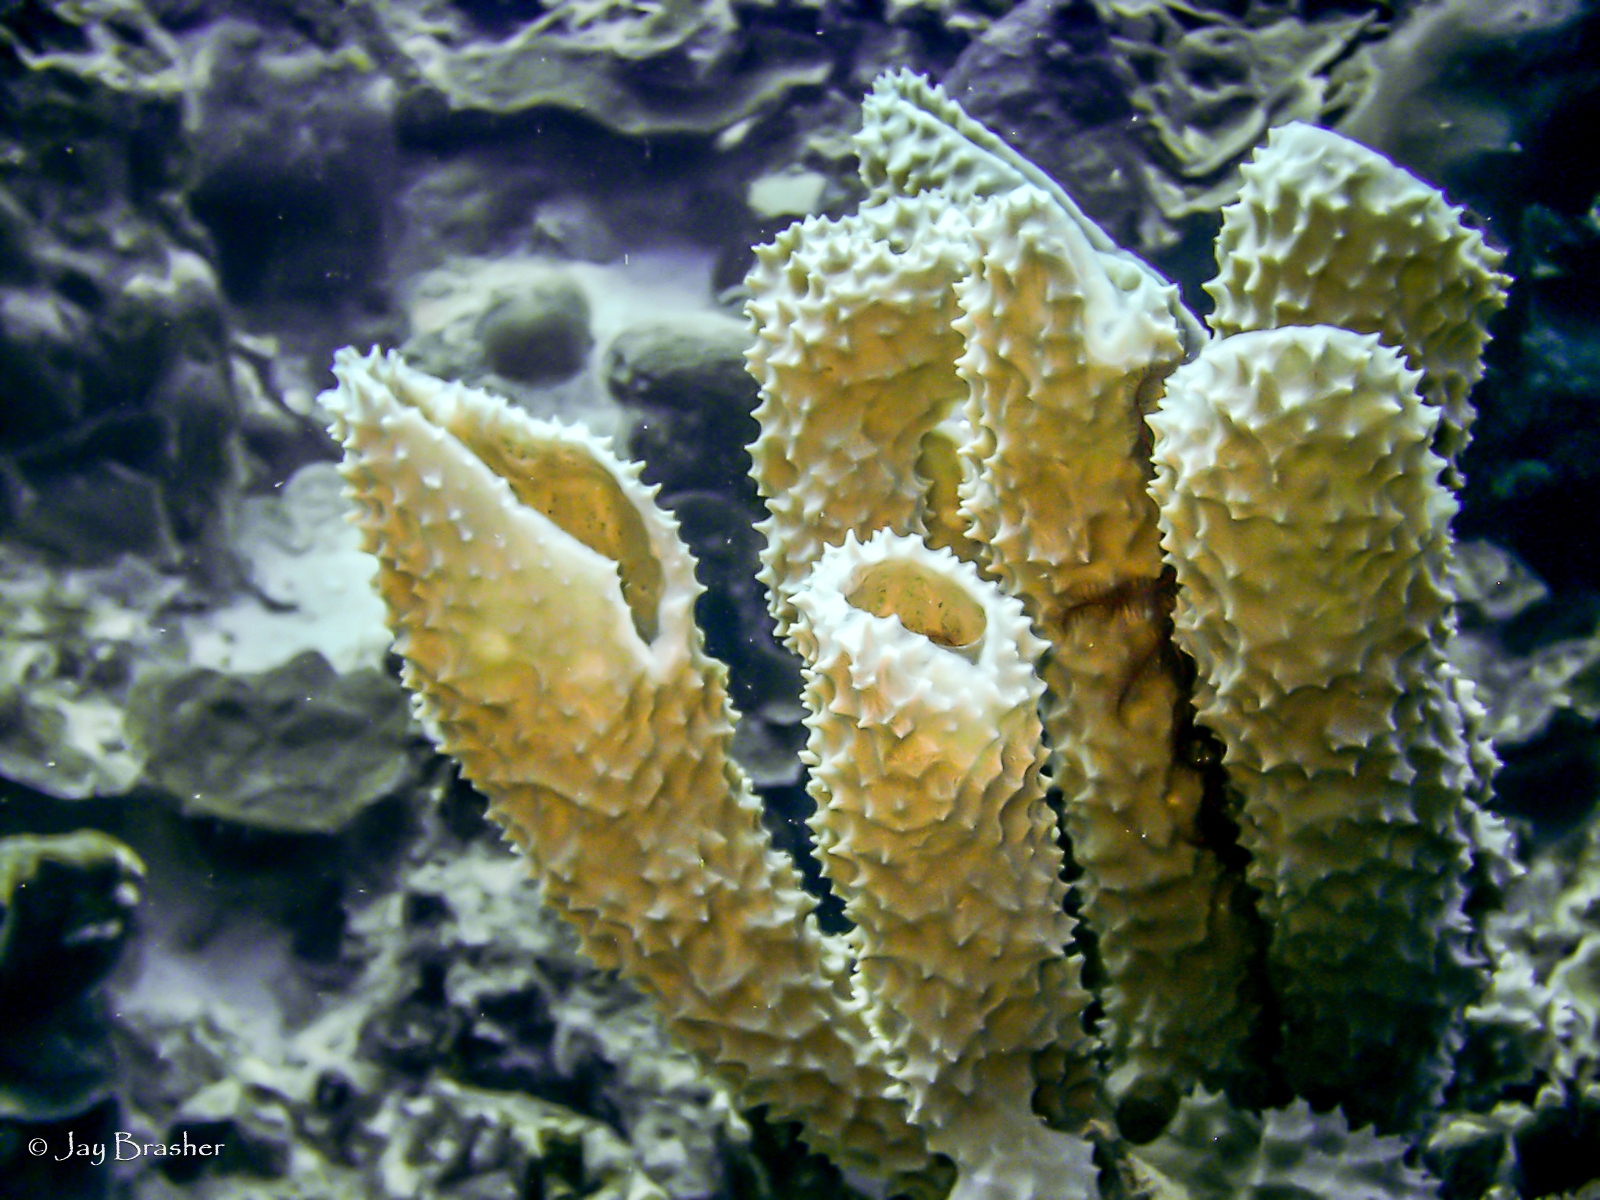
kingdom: Animalia
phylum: Porifera
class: Demospongiae
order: Haplosclerida
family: Callyspongiidae
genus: Callyspongia
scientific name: Callyspongia aculeata
